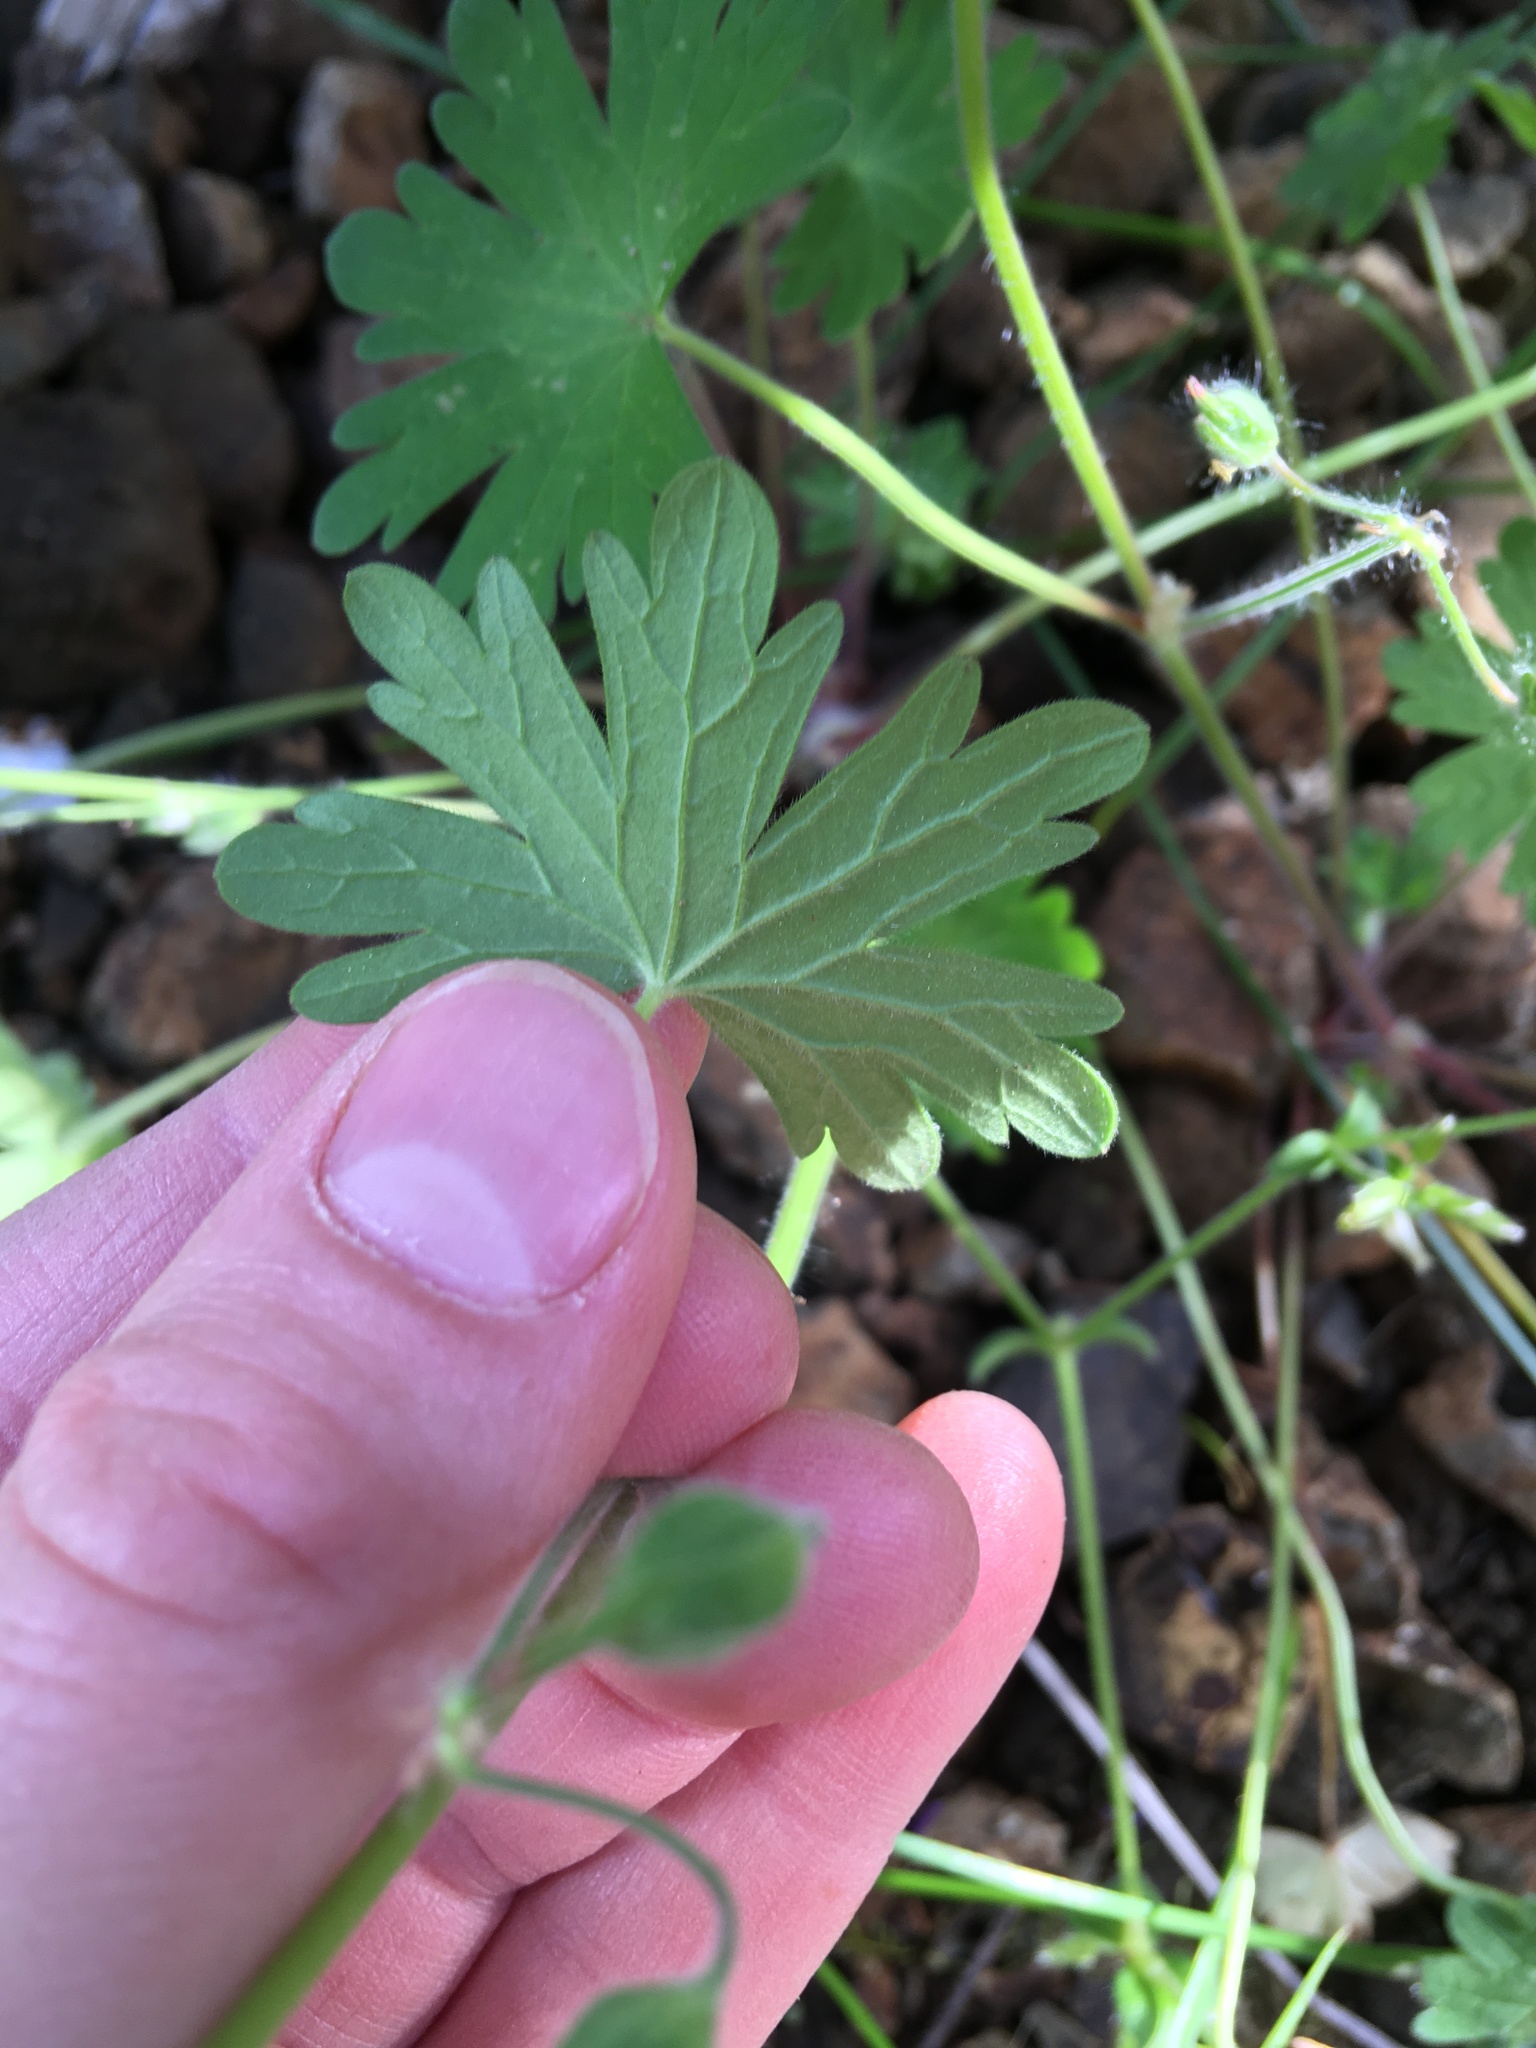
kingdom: Plantae
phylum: Tracheophyta
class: Magnoliopsida
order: Geraniales
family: Geraniaceae
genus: Geranium
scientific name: Geranium molle
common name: Dove's-foot crane's-bill
